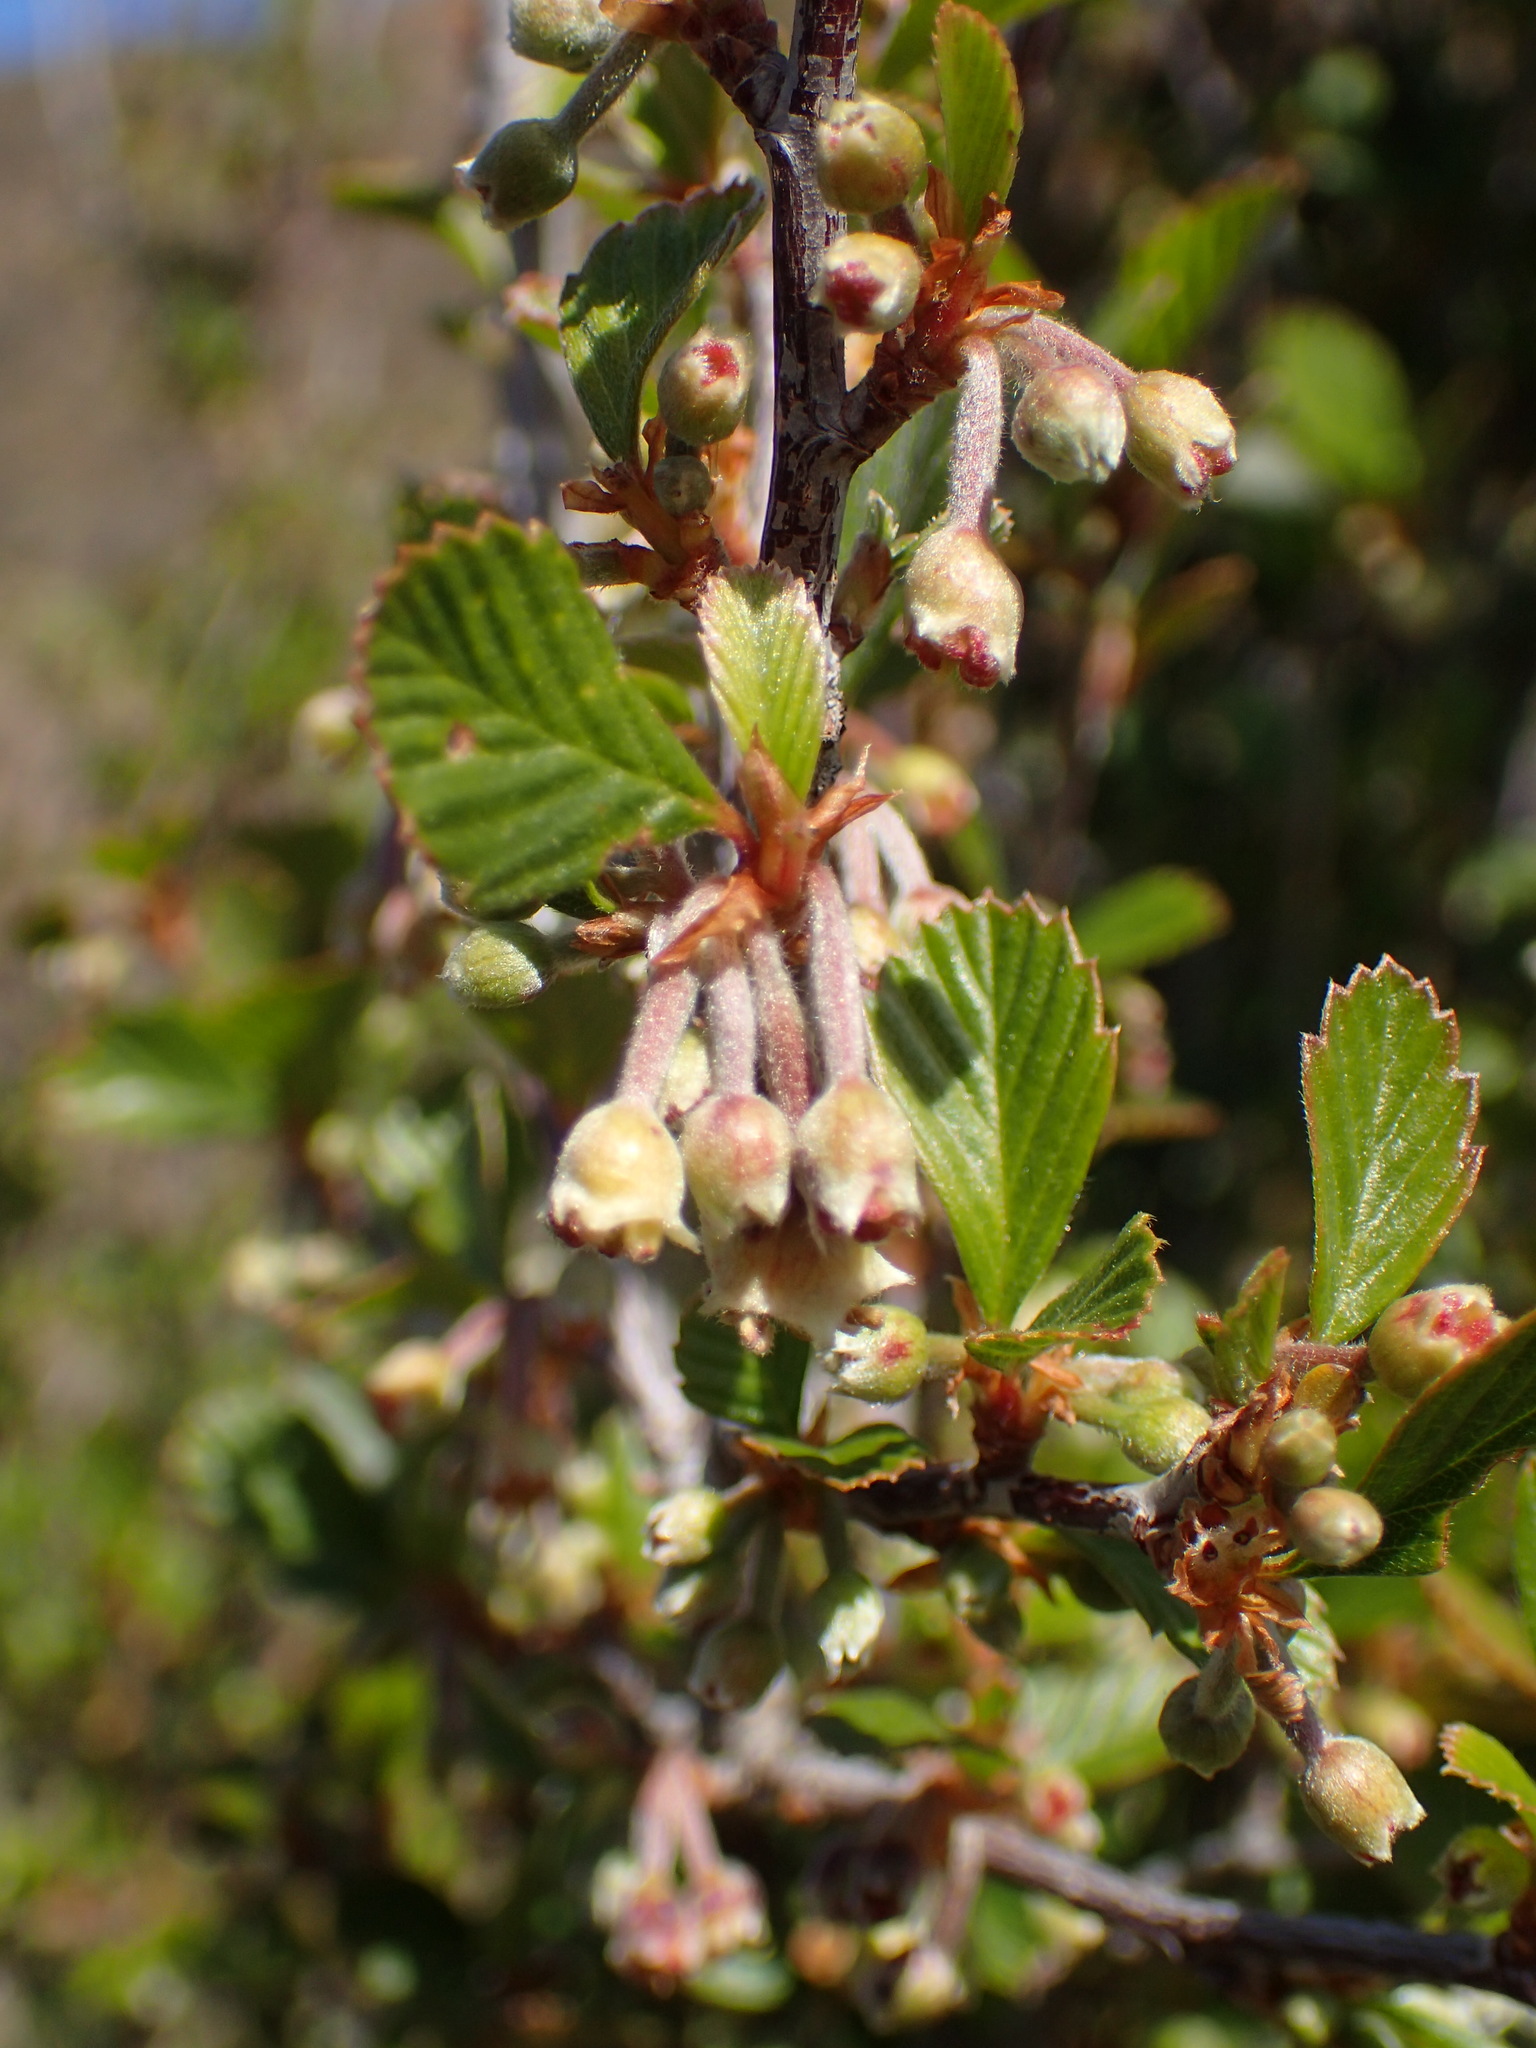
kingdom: Plantae
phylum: Tracheophyta
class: Magnoliopsida
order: Rosales
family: Rosaceae
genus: Cercocarpus
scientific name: Cercocarpus betuloides
